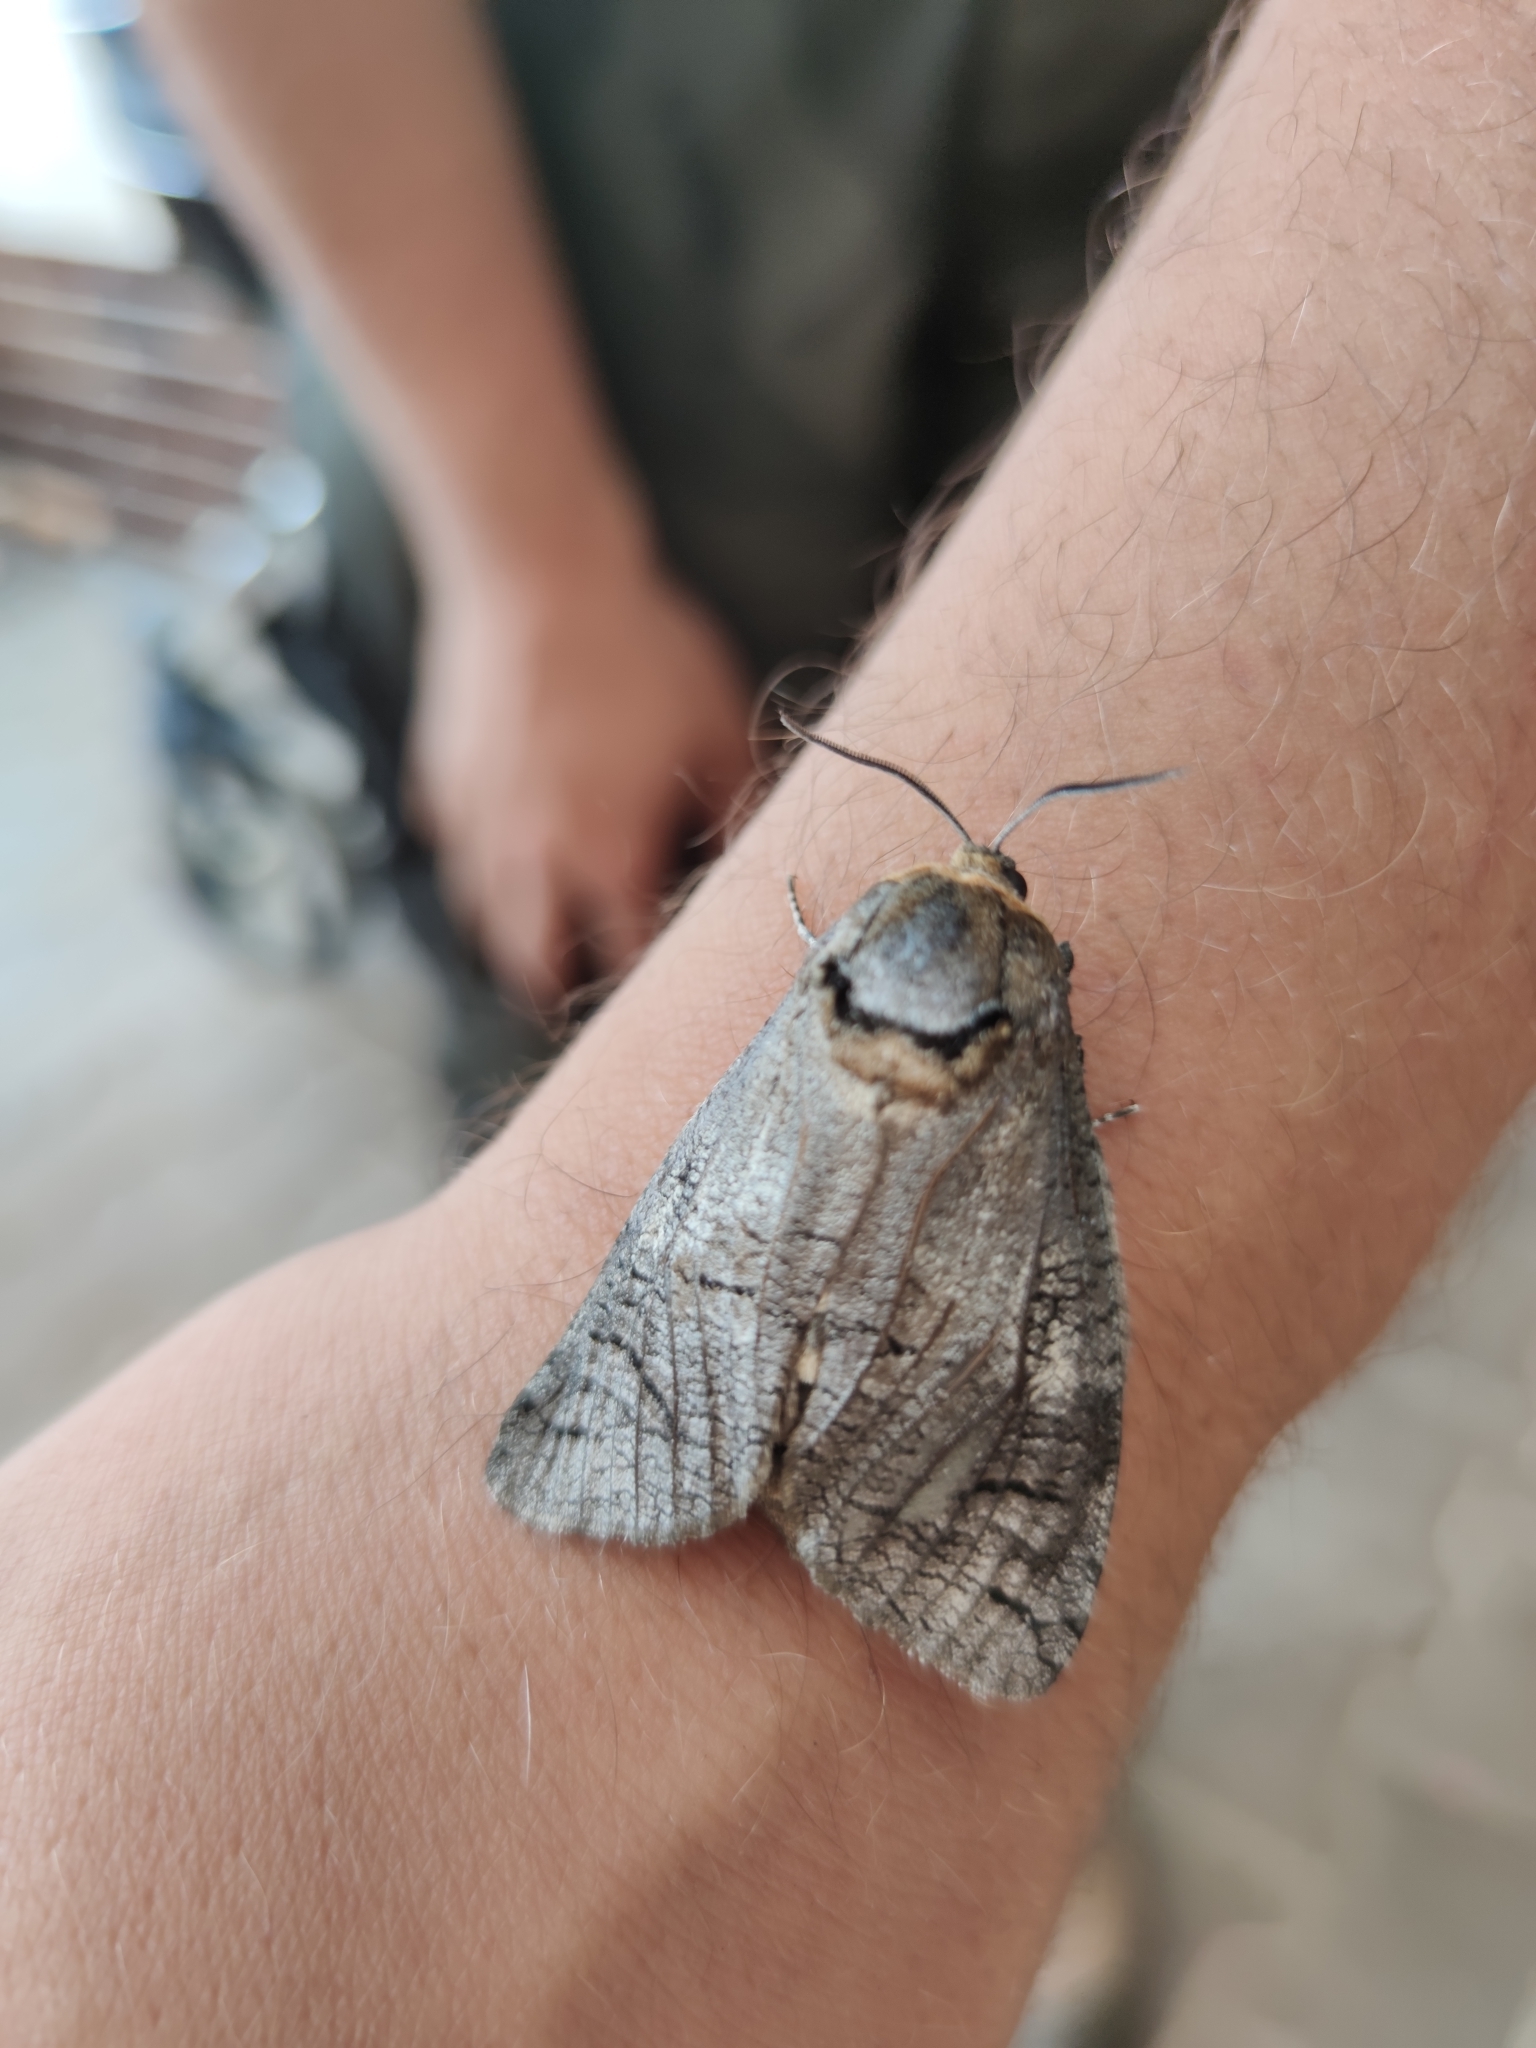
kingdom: Animalia
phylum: Arthropoda
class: Insecta
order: Lepidoptera
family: Cossidae
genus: Cossus
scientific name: Cossus cossus
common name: Goat moth
